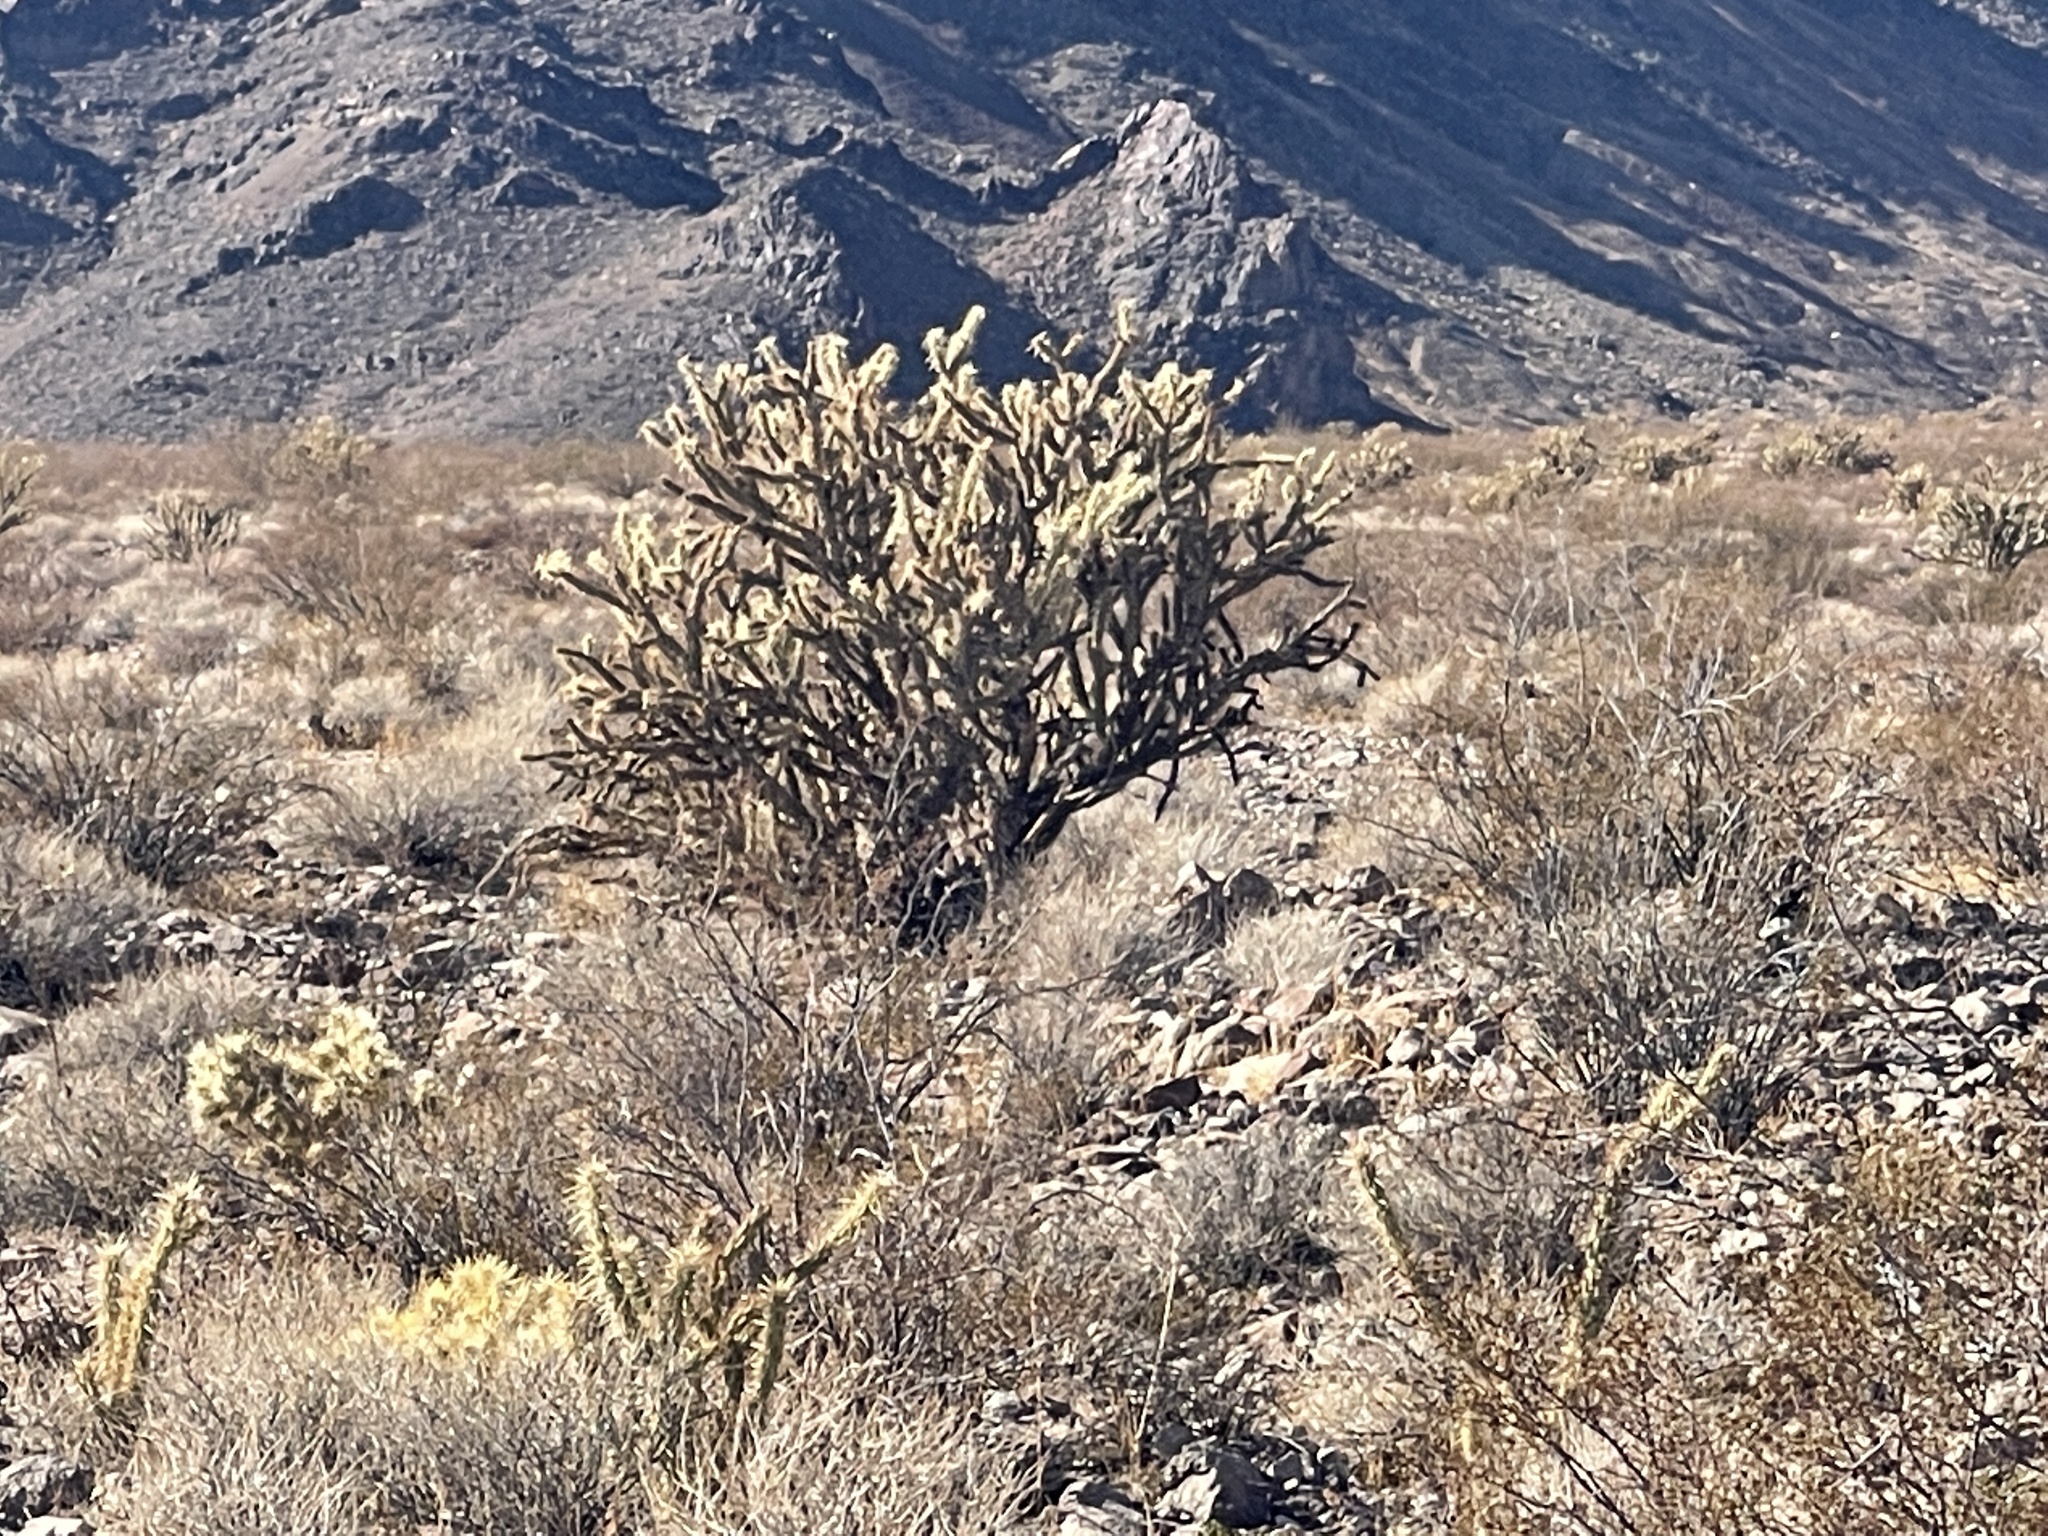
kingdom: Plantae
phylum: Tracheophyta
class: Magnoliopsida
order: Caryophyllales
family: Cactaceae
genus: Cylindropuntia
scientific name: Cylindropuntia acanthocarpa
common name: Buckhorn cholla
